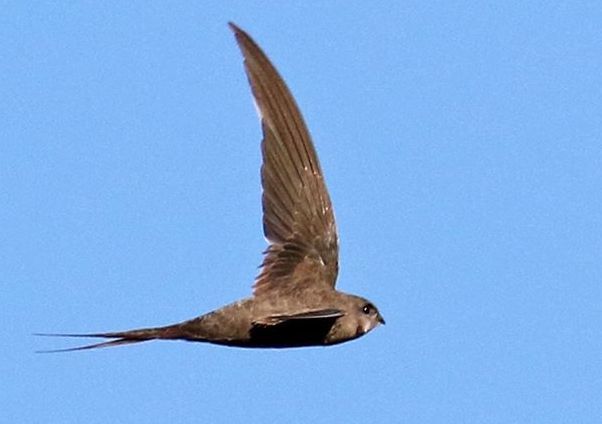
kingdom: Animalia
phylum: Chordata
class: Aves
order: Apodiformes
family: Apodidae
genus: Cypsiurus
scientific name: Cypsiurus parvus
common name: African palm swift
